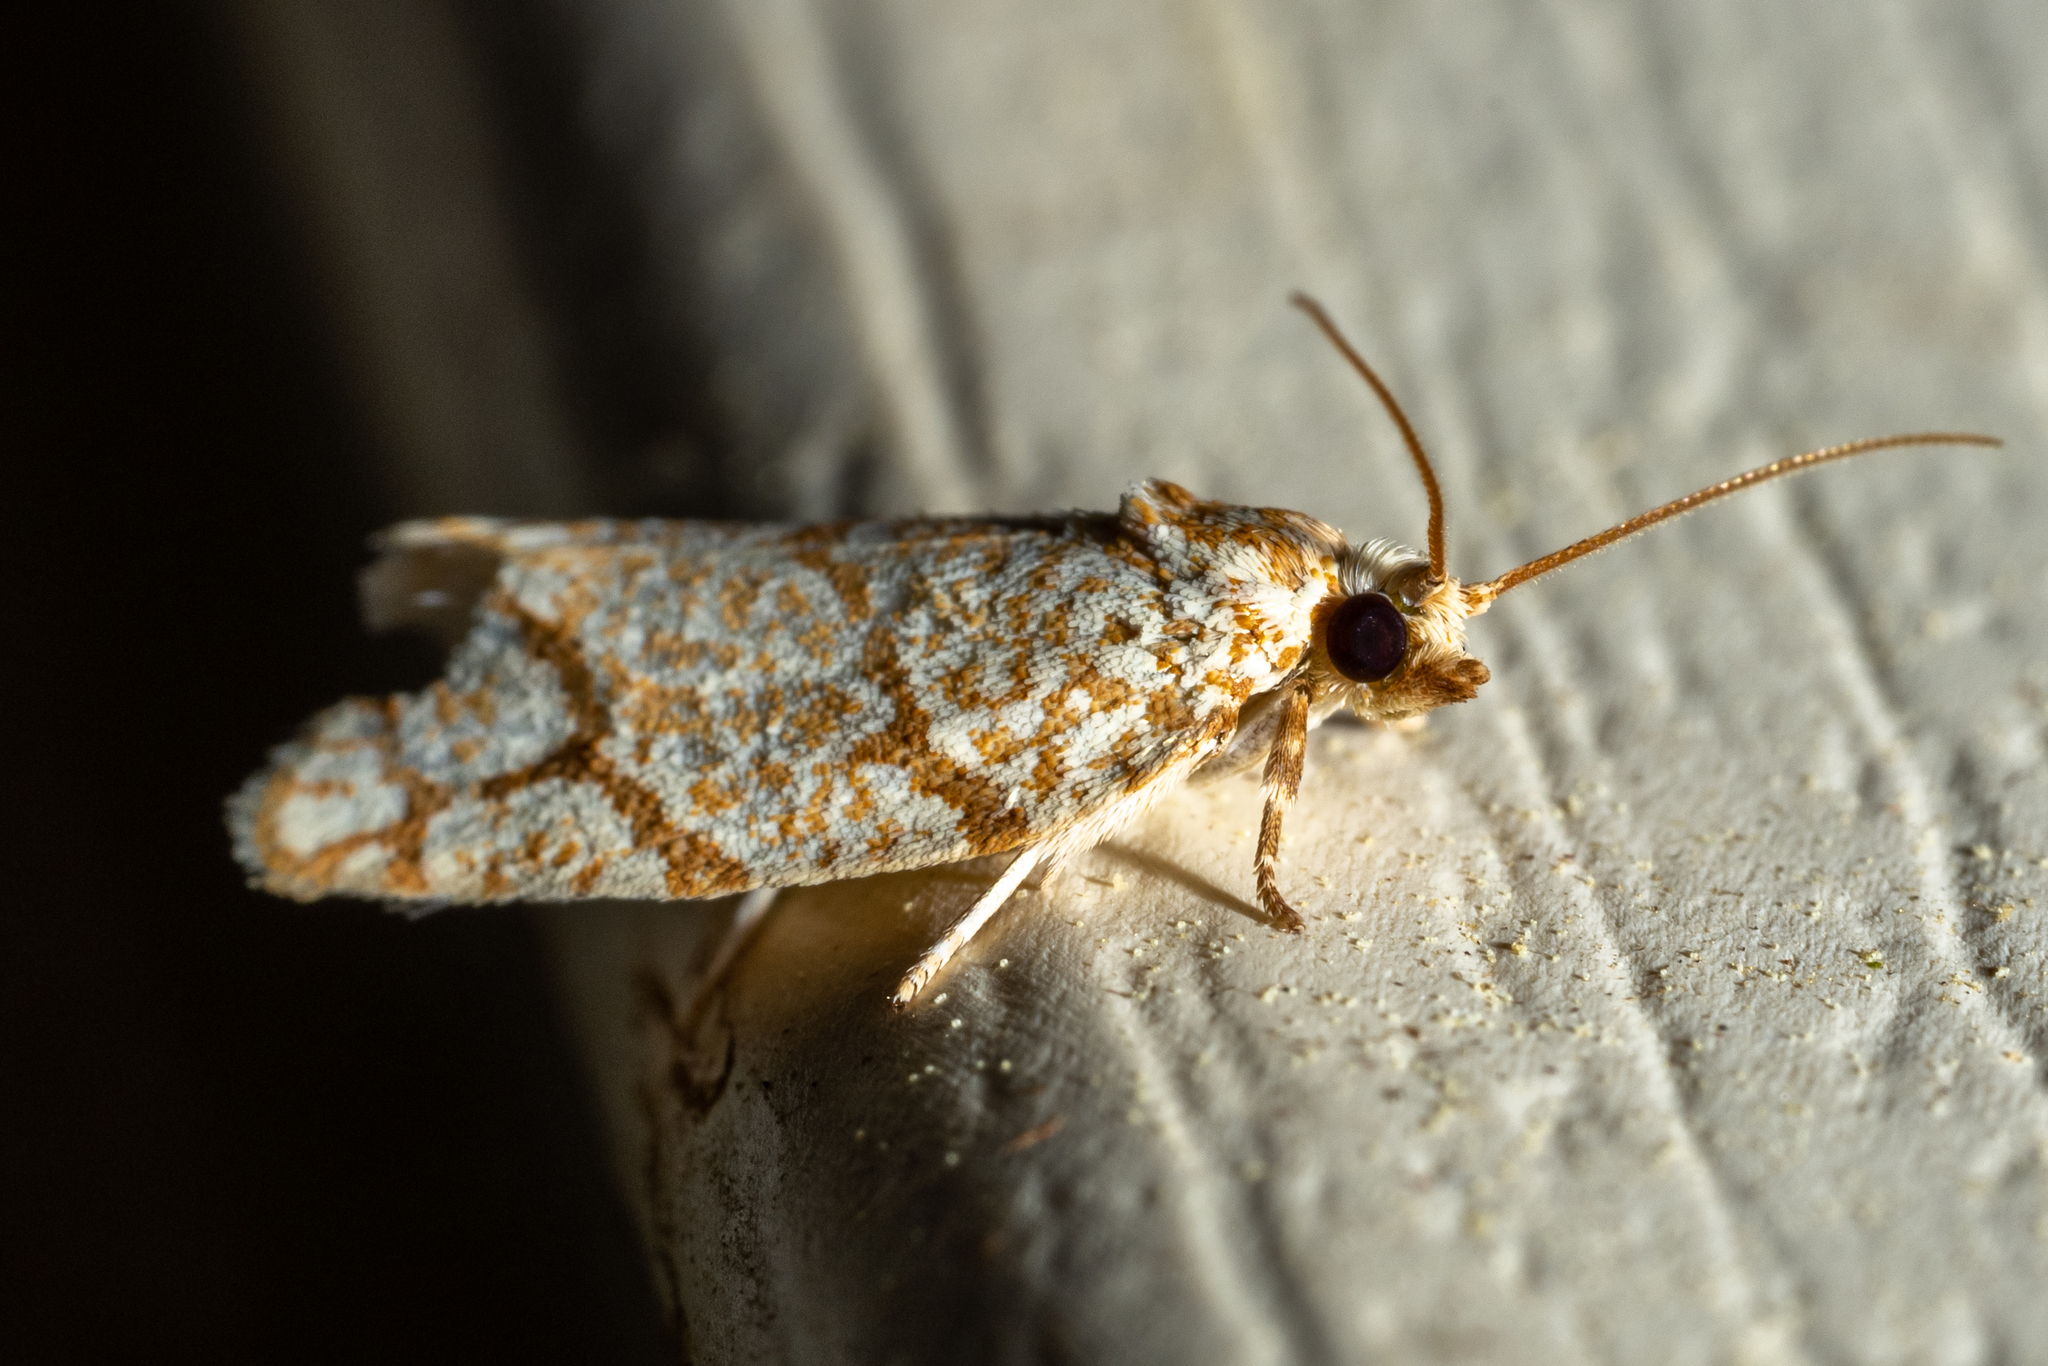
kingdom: Animalia
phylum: Arthropoda
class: Insecta
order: Lepidoptera
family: Tortricidae
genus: Argyrotaenia
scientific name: Argyrotaenia quercifoliana
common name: Yellow-winged oak leafroller moth
